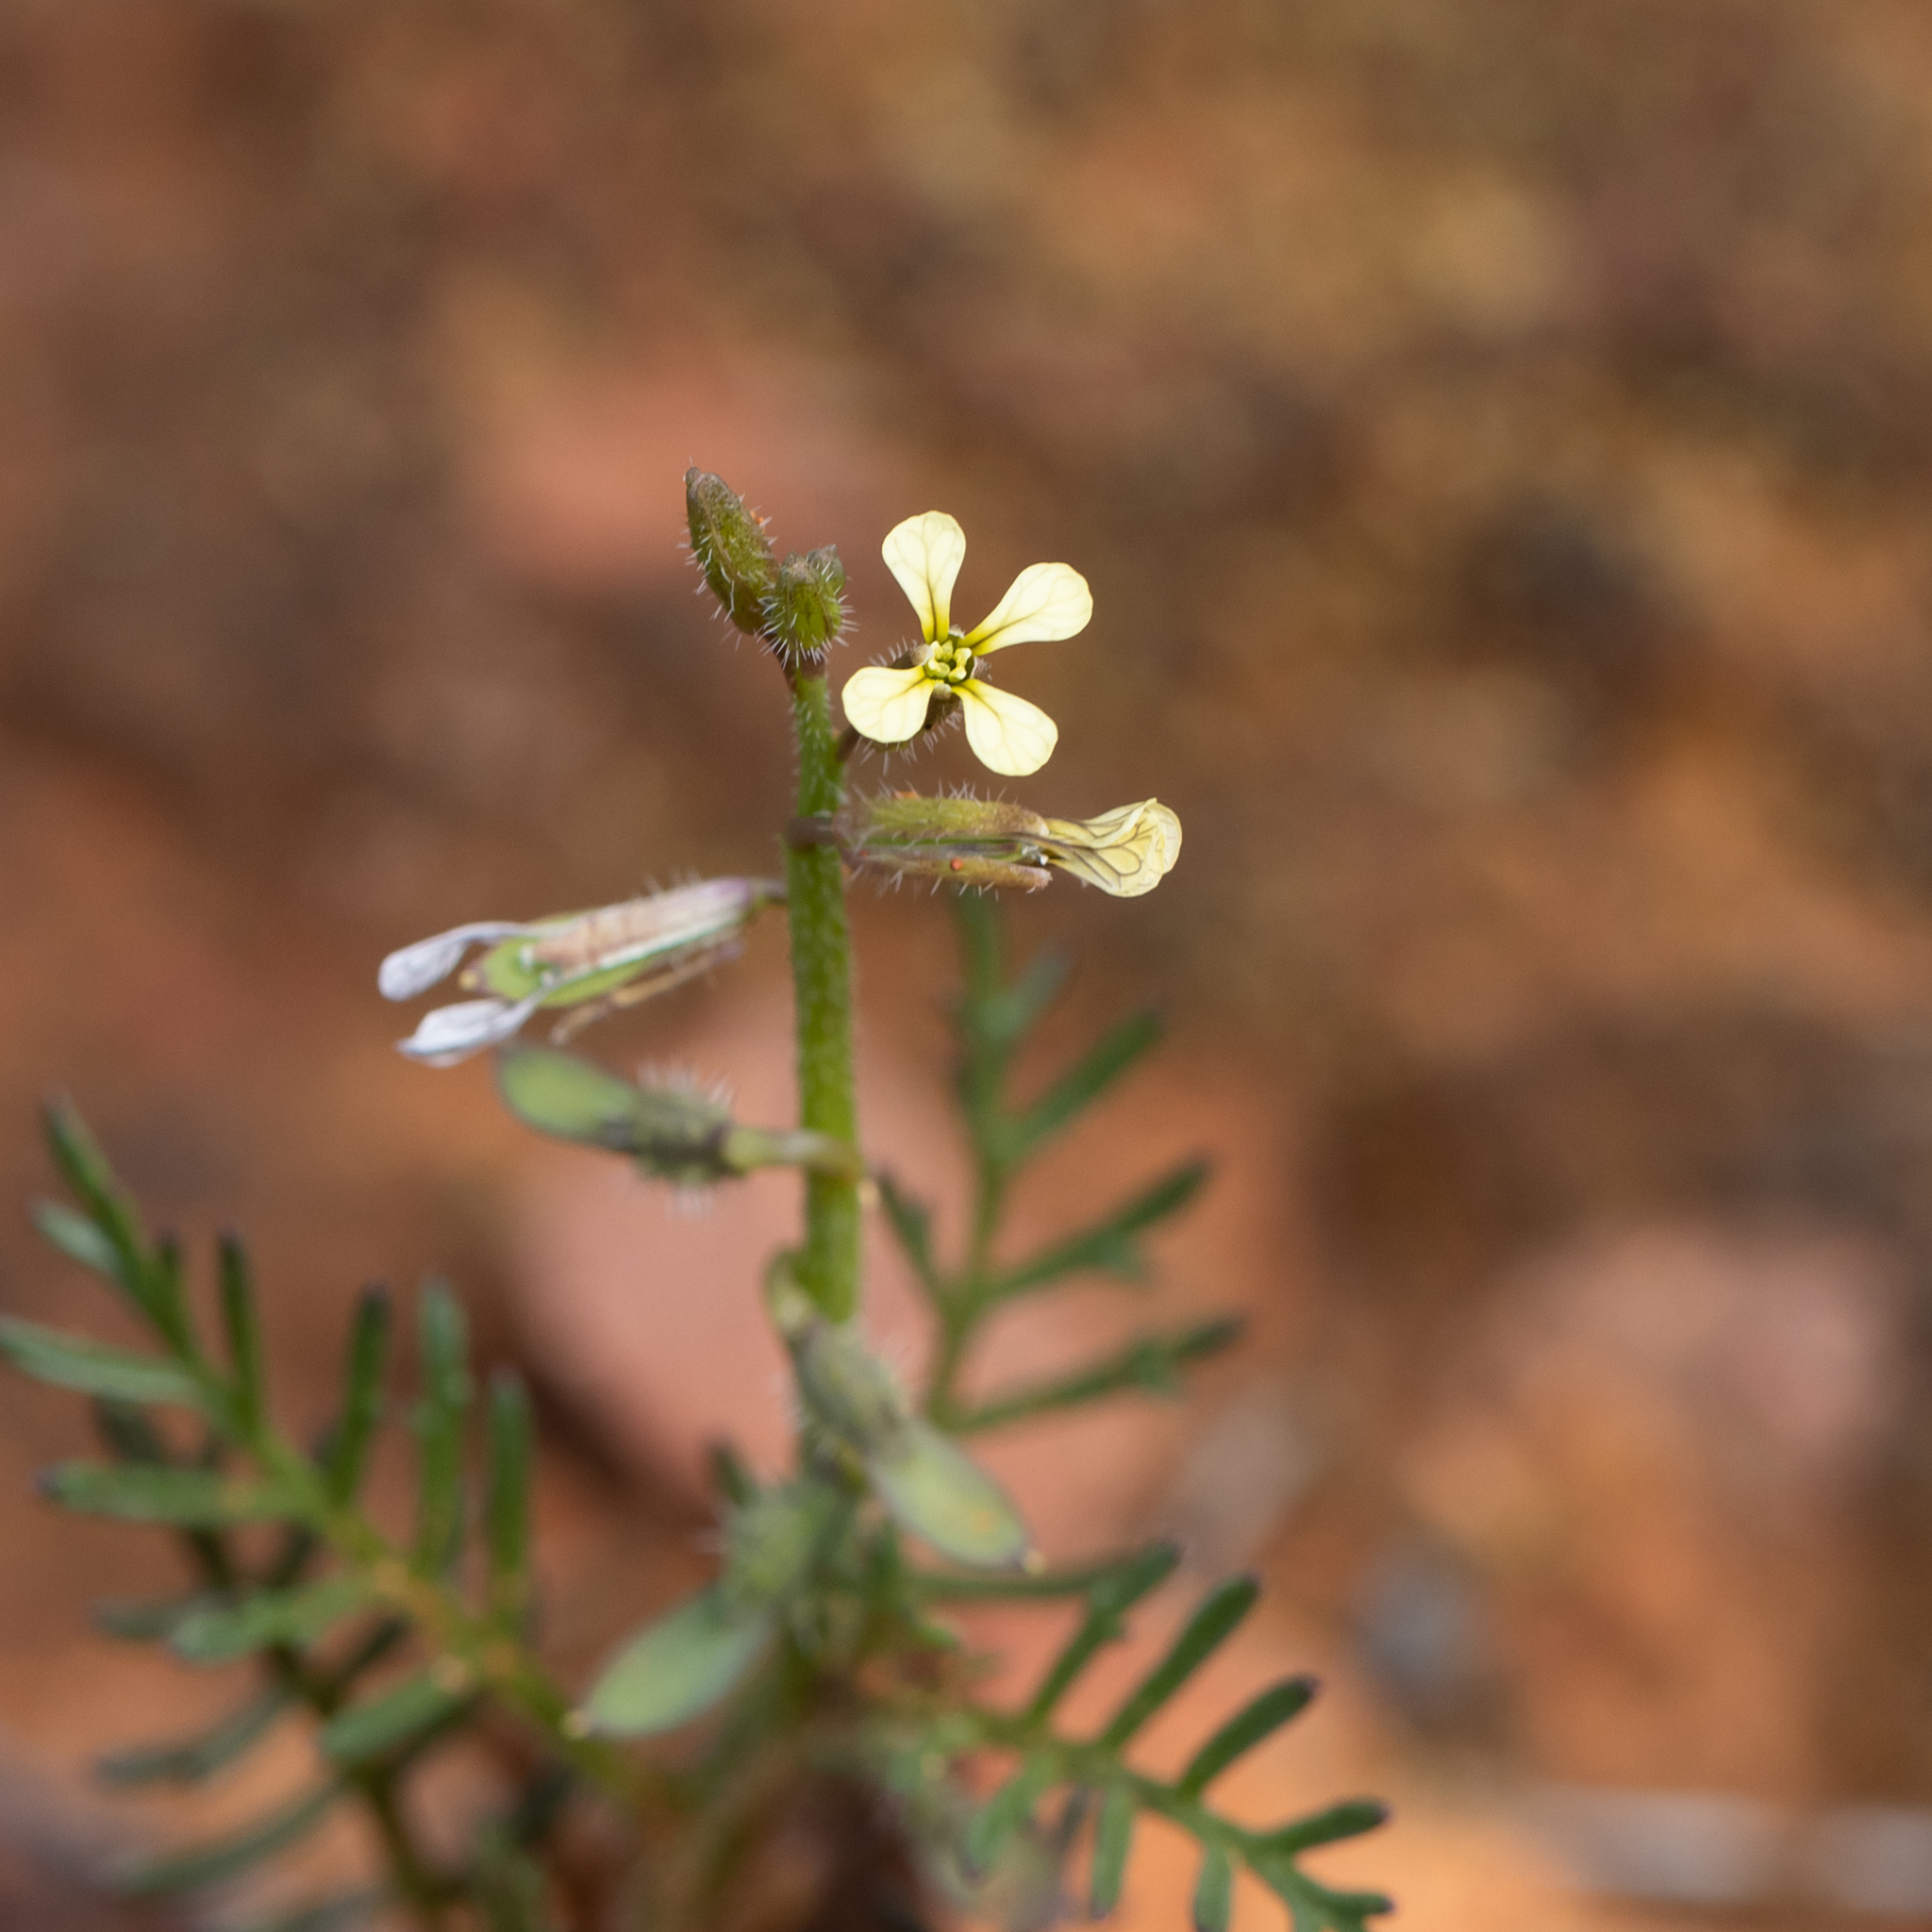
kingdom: Plantae
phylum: Tracheophyta
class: Magnoliopsida
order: Brassicales
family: Brassicaceae
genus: Carrichtera
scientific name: Carrichtera annua
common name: Cress rocket
